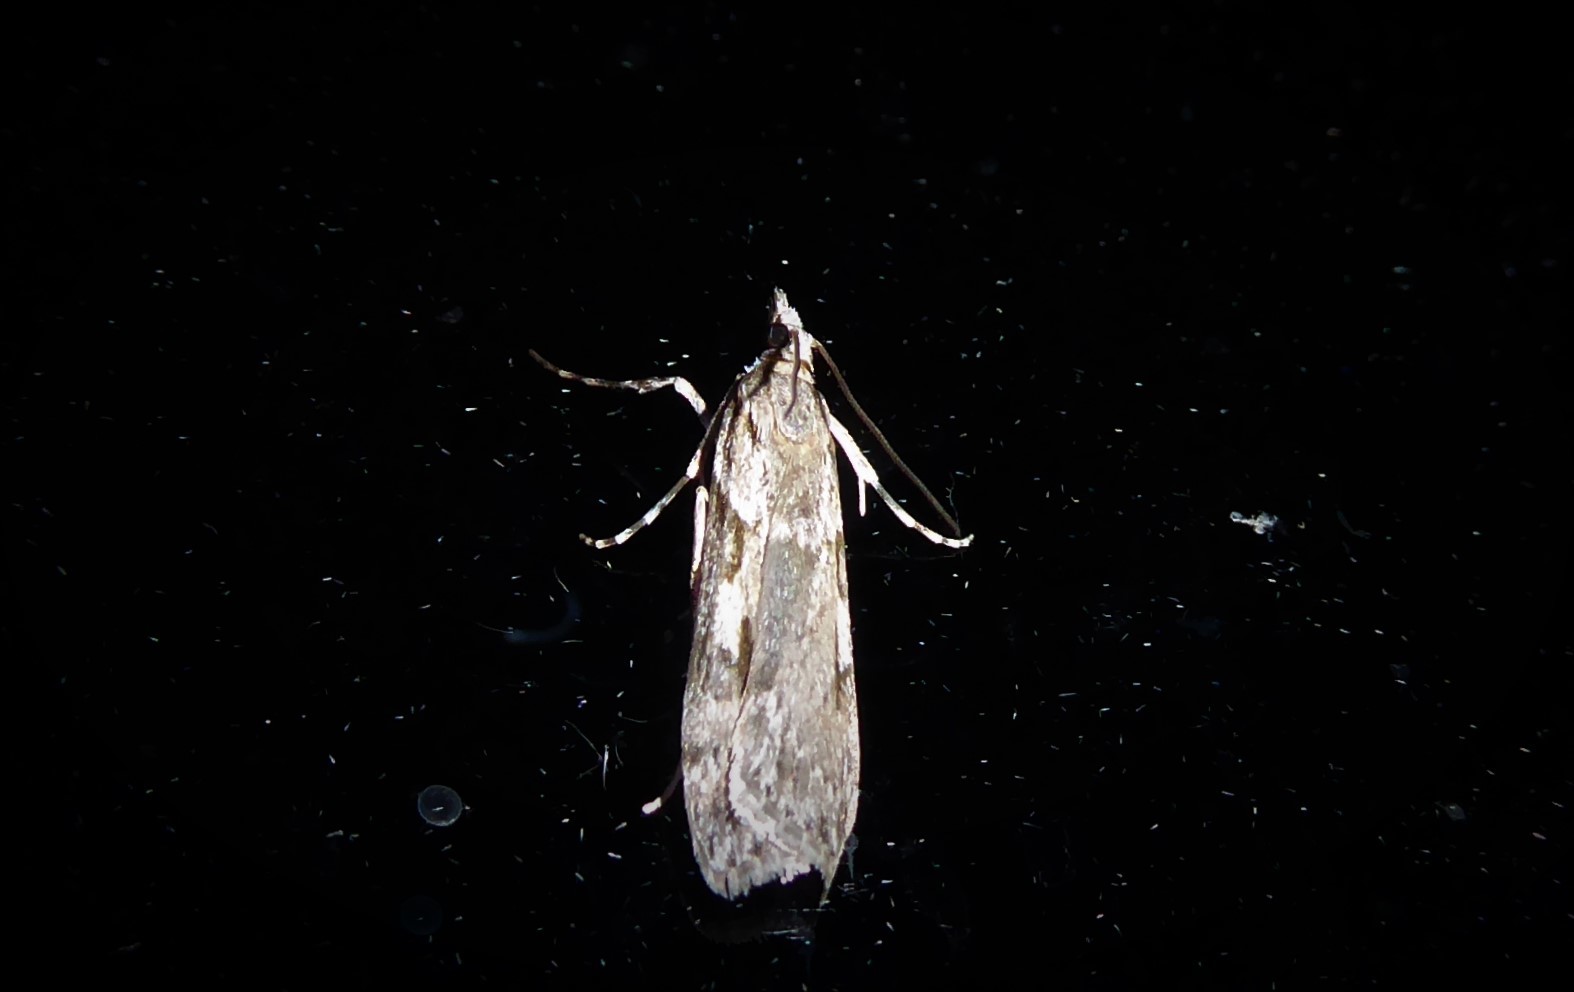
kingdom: Animalia
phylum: Arthropoda
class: Insecta
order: Lepidoptera
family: Crambidae
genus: Scoparia
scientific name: Scoparia halopis
